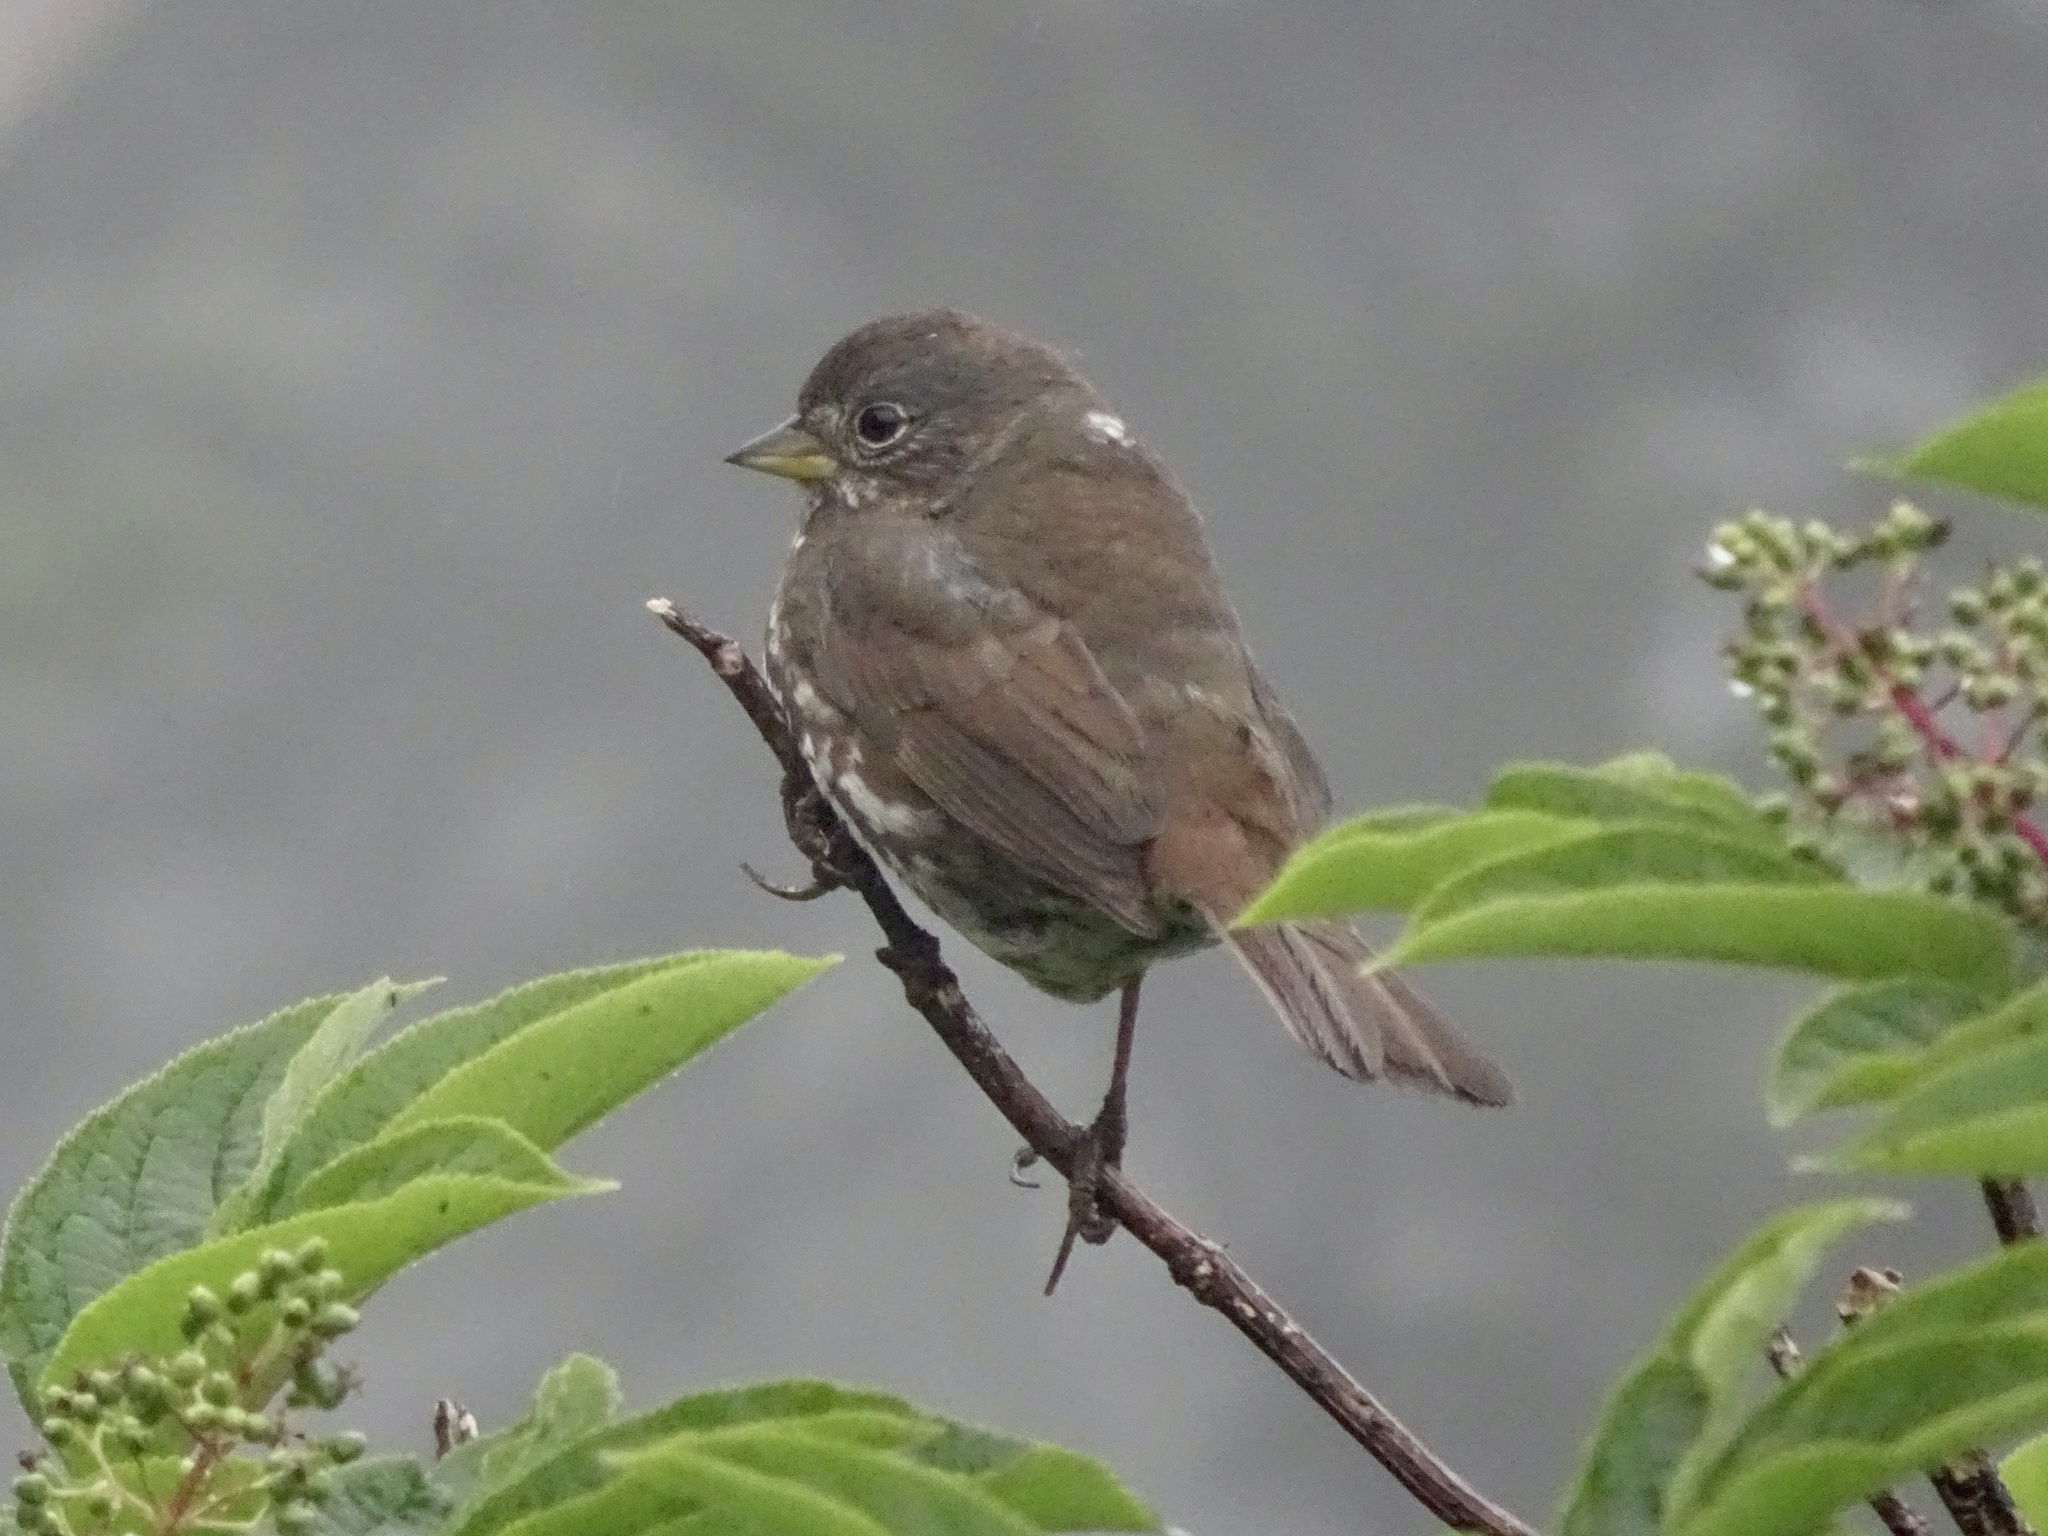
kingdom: Animalia
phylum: Chordata
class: Aves
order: Passeriformes
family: Passerellidae
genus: Passerella
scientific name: Passerella iliaca
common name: Fox sparrow
